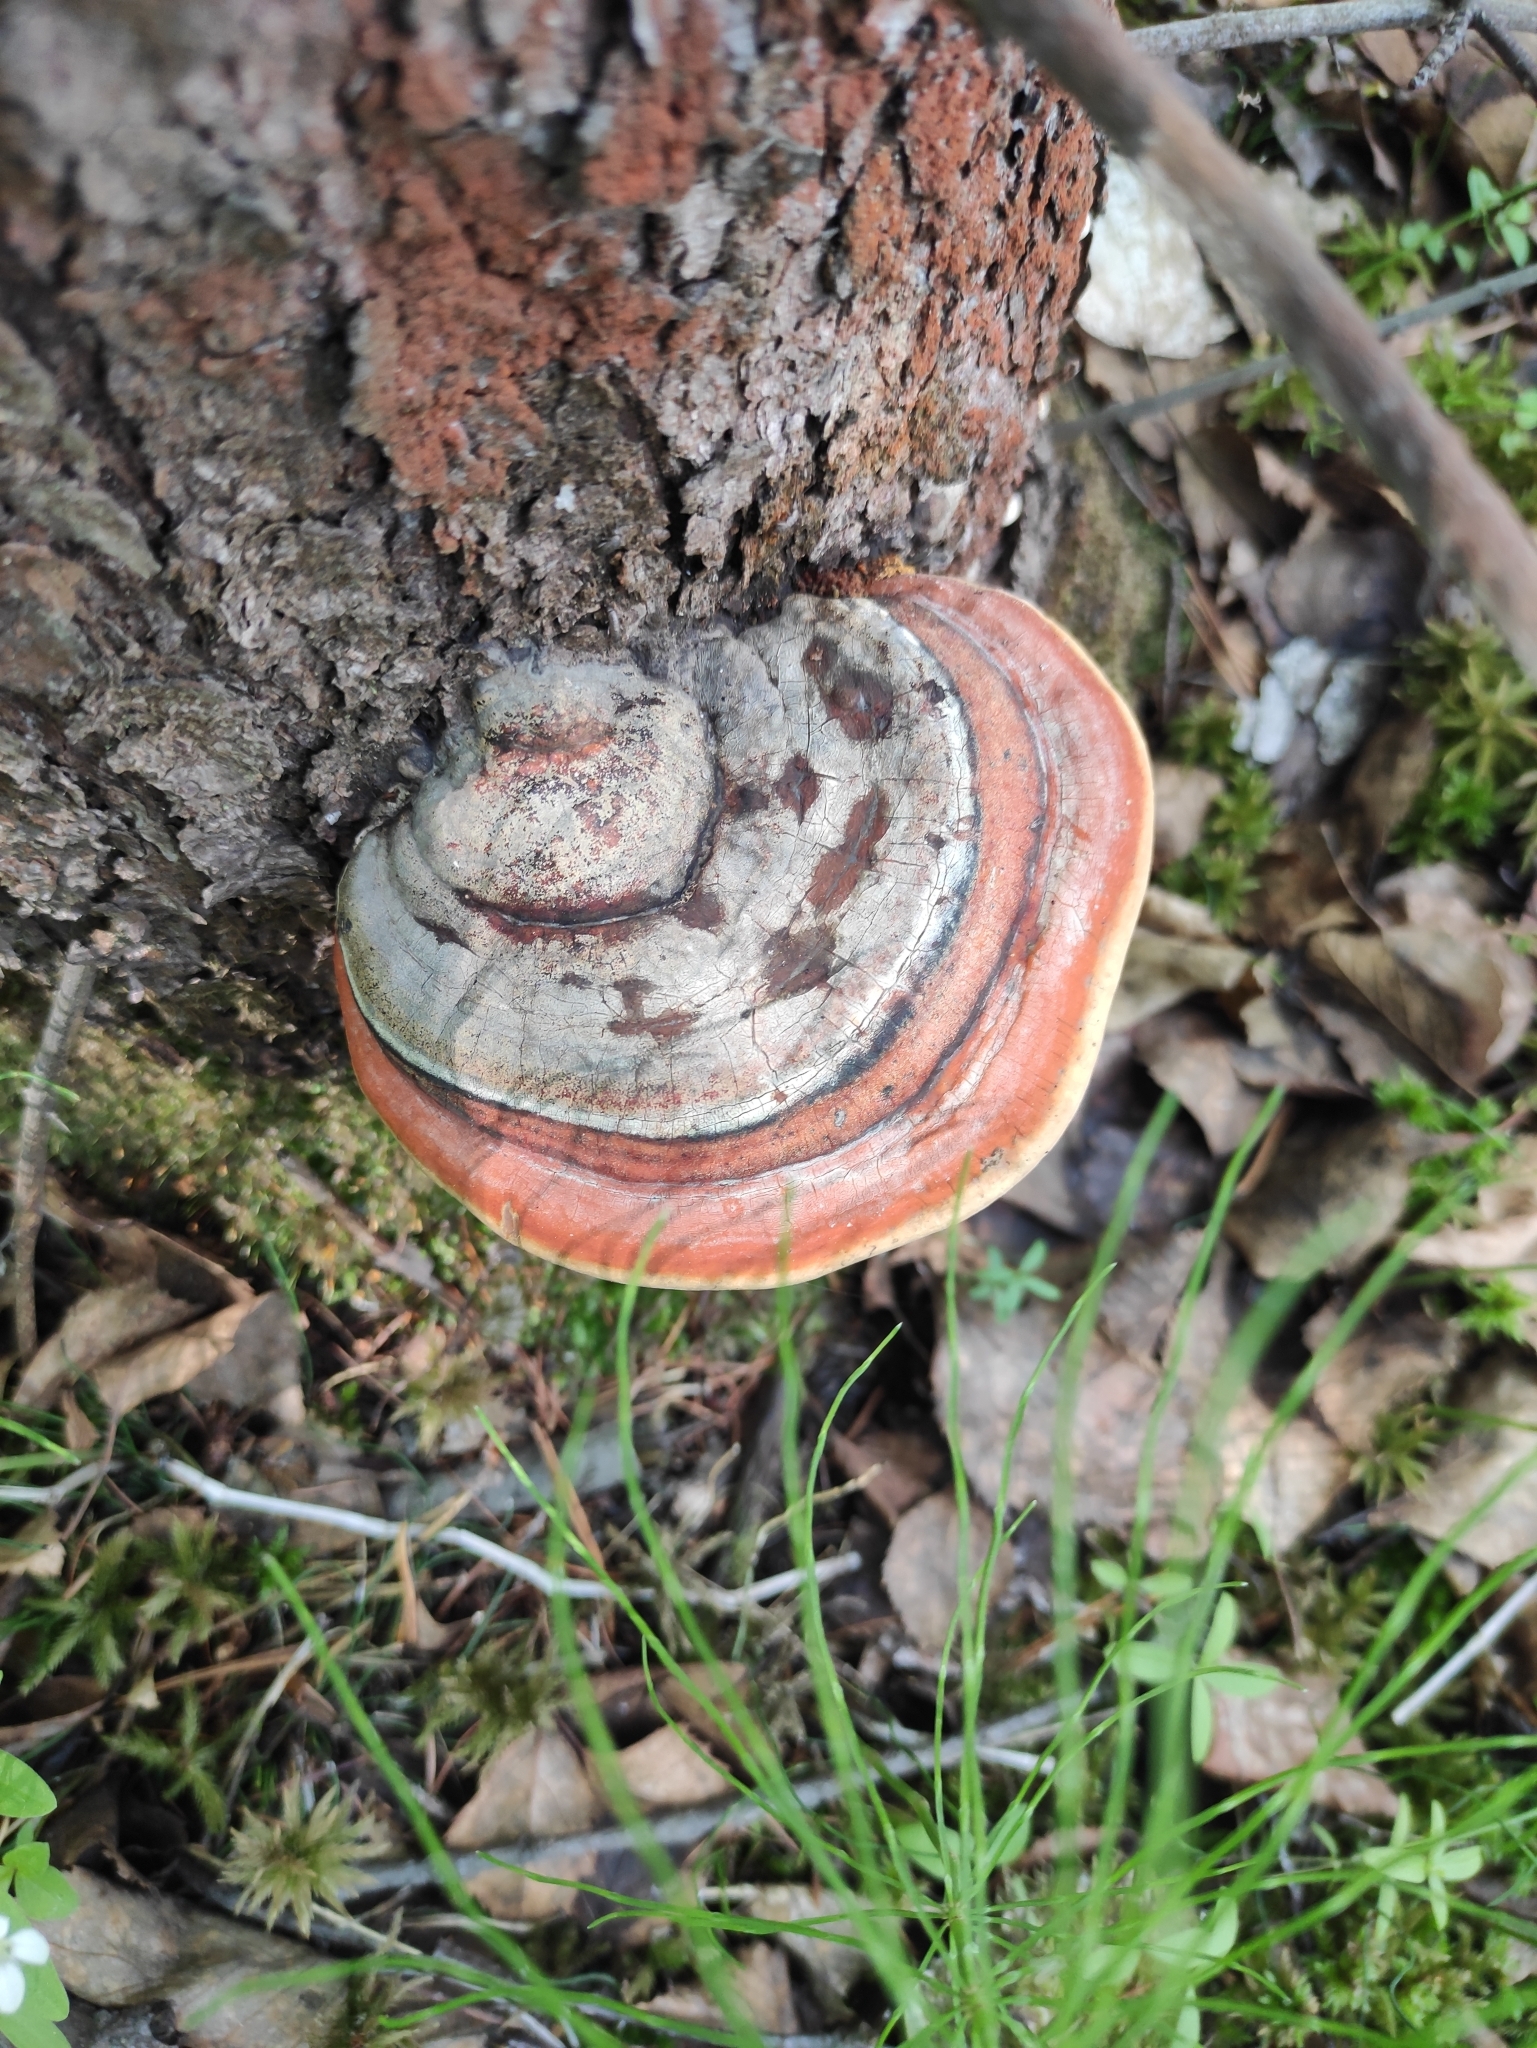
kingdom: Fungi
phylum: Basidiomycota
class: Agaricomycetes
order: Polyporales
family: Fomitopsidaceae
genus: Fomitopsis
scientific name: Fomitopsis pinicola
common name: Red-belted bracket
